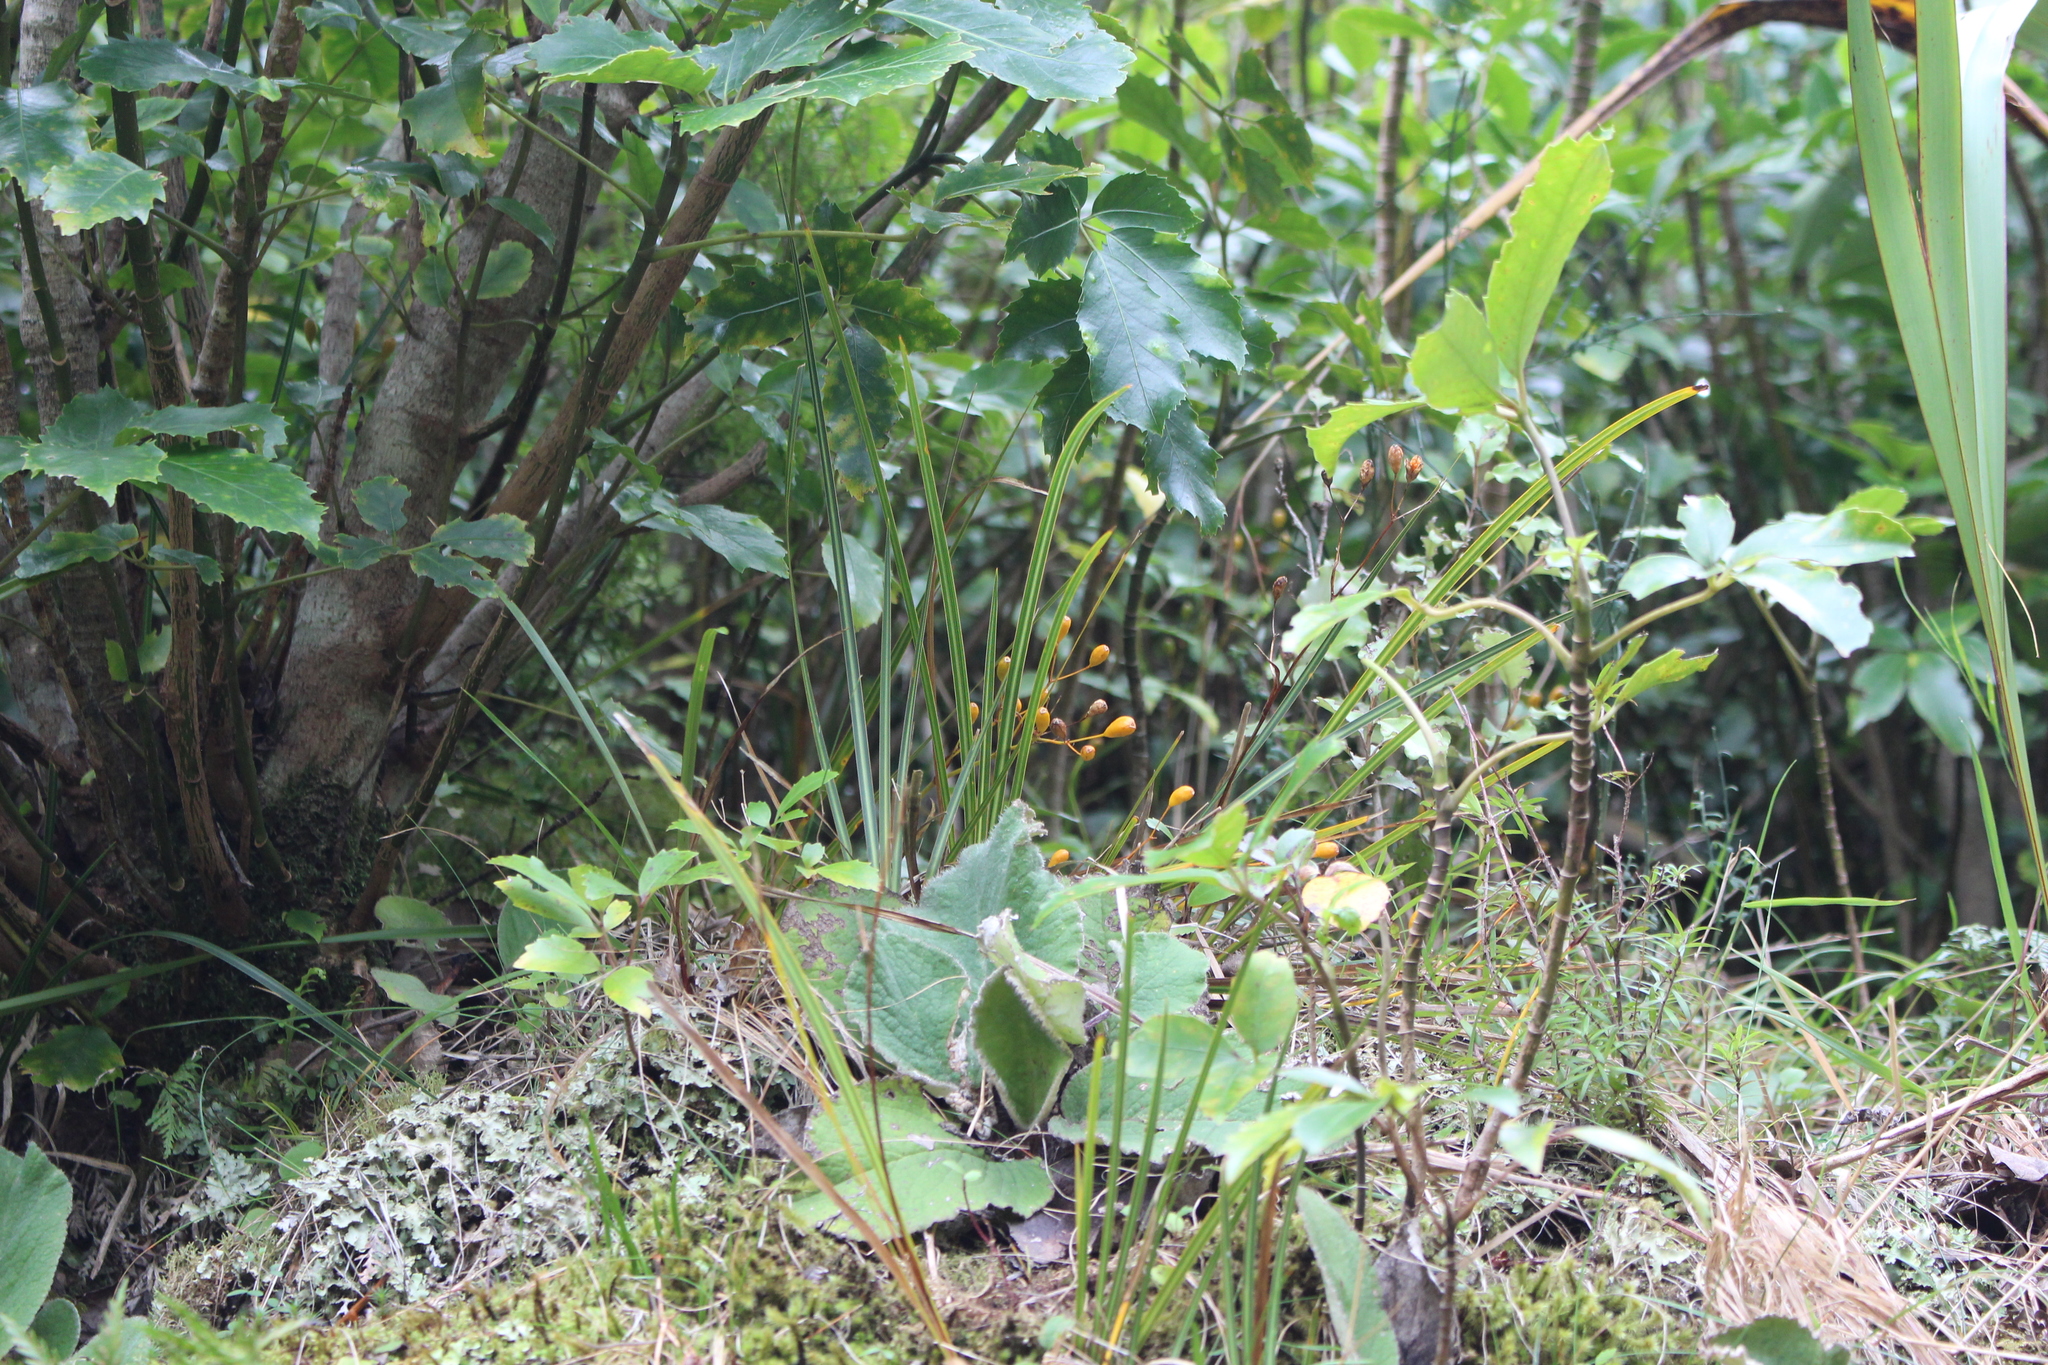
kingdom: Plantae
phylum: Tracheophyta
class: Liliopsida
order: Asparagales
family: Iridaceae
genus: Libertia
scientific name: Libertia ixioides
